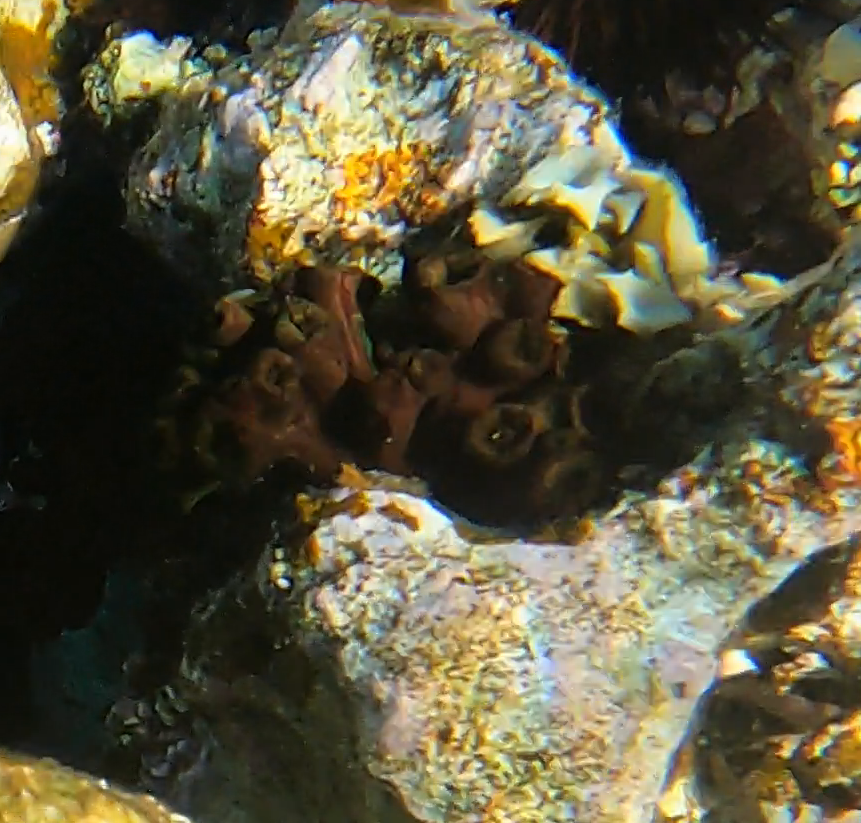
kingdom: Animalia
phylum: Cnidaria
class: Anthozoa
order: Scleractinia
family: Dendrophylliidae
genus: Tubastraea
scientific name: Tubastraea micranthus
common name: Black sun coral
